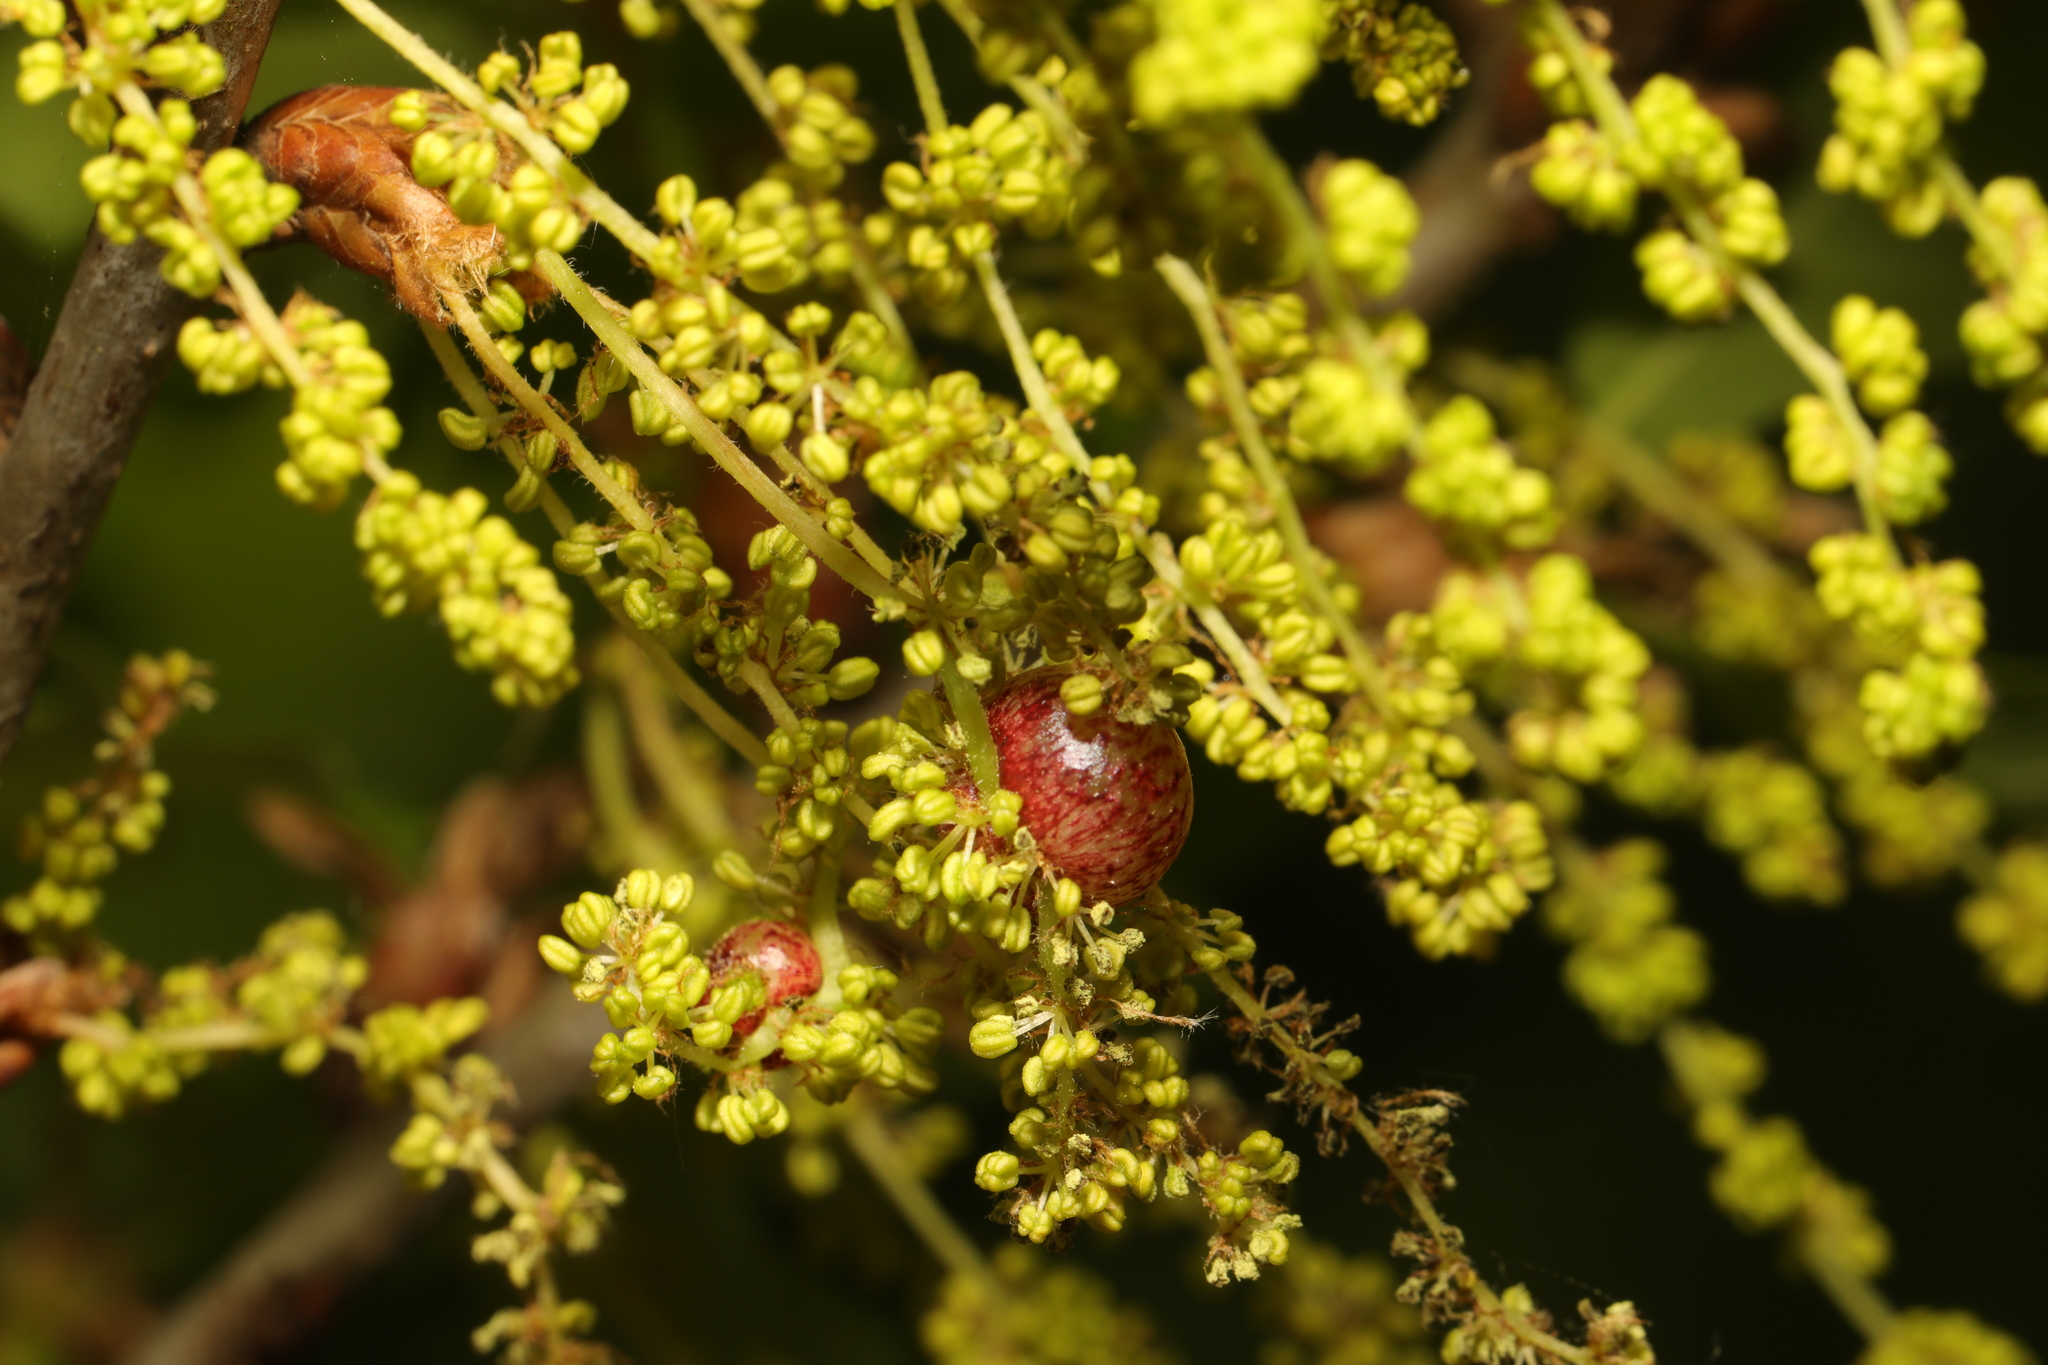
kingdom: Animalia
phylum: Arthropoda
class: Insecta
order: Hymenoptera
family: Cynipidae
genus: Neuroterus
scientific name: Neuroterus quercusbaccarum
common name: Common spangle gall
